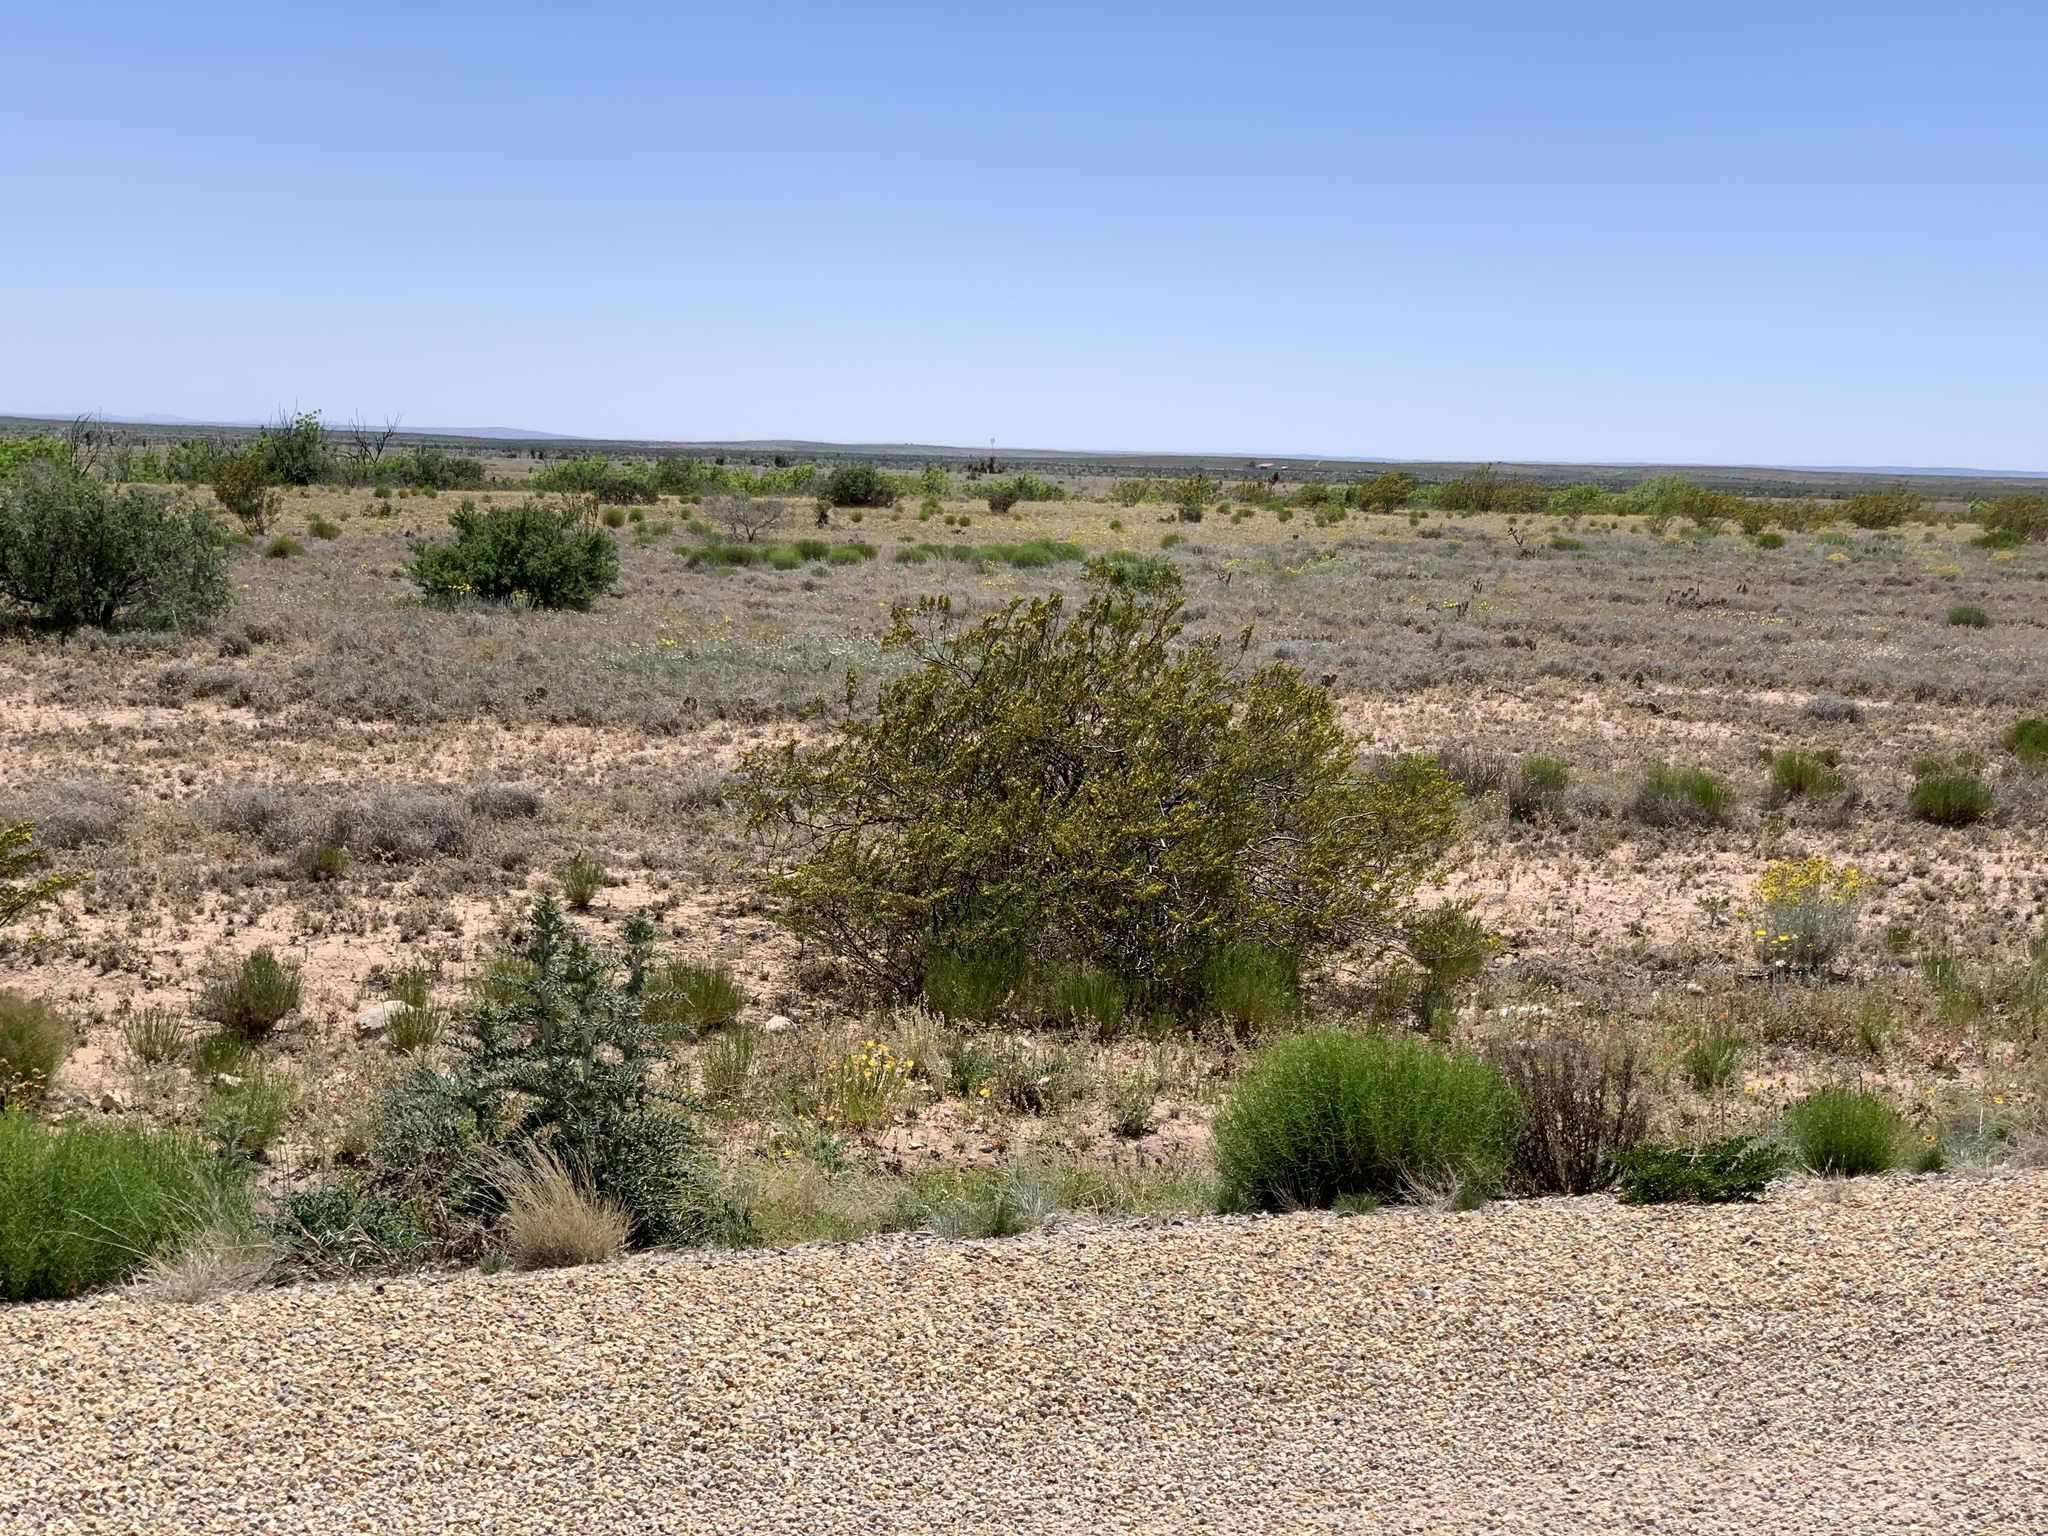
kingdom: Plantae
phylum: Tracheophyta
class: Magnoliopsida
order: Zygophyllales
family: Zygophyllaceae
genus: Larrea
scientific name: Larrea tridentata
